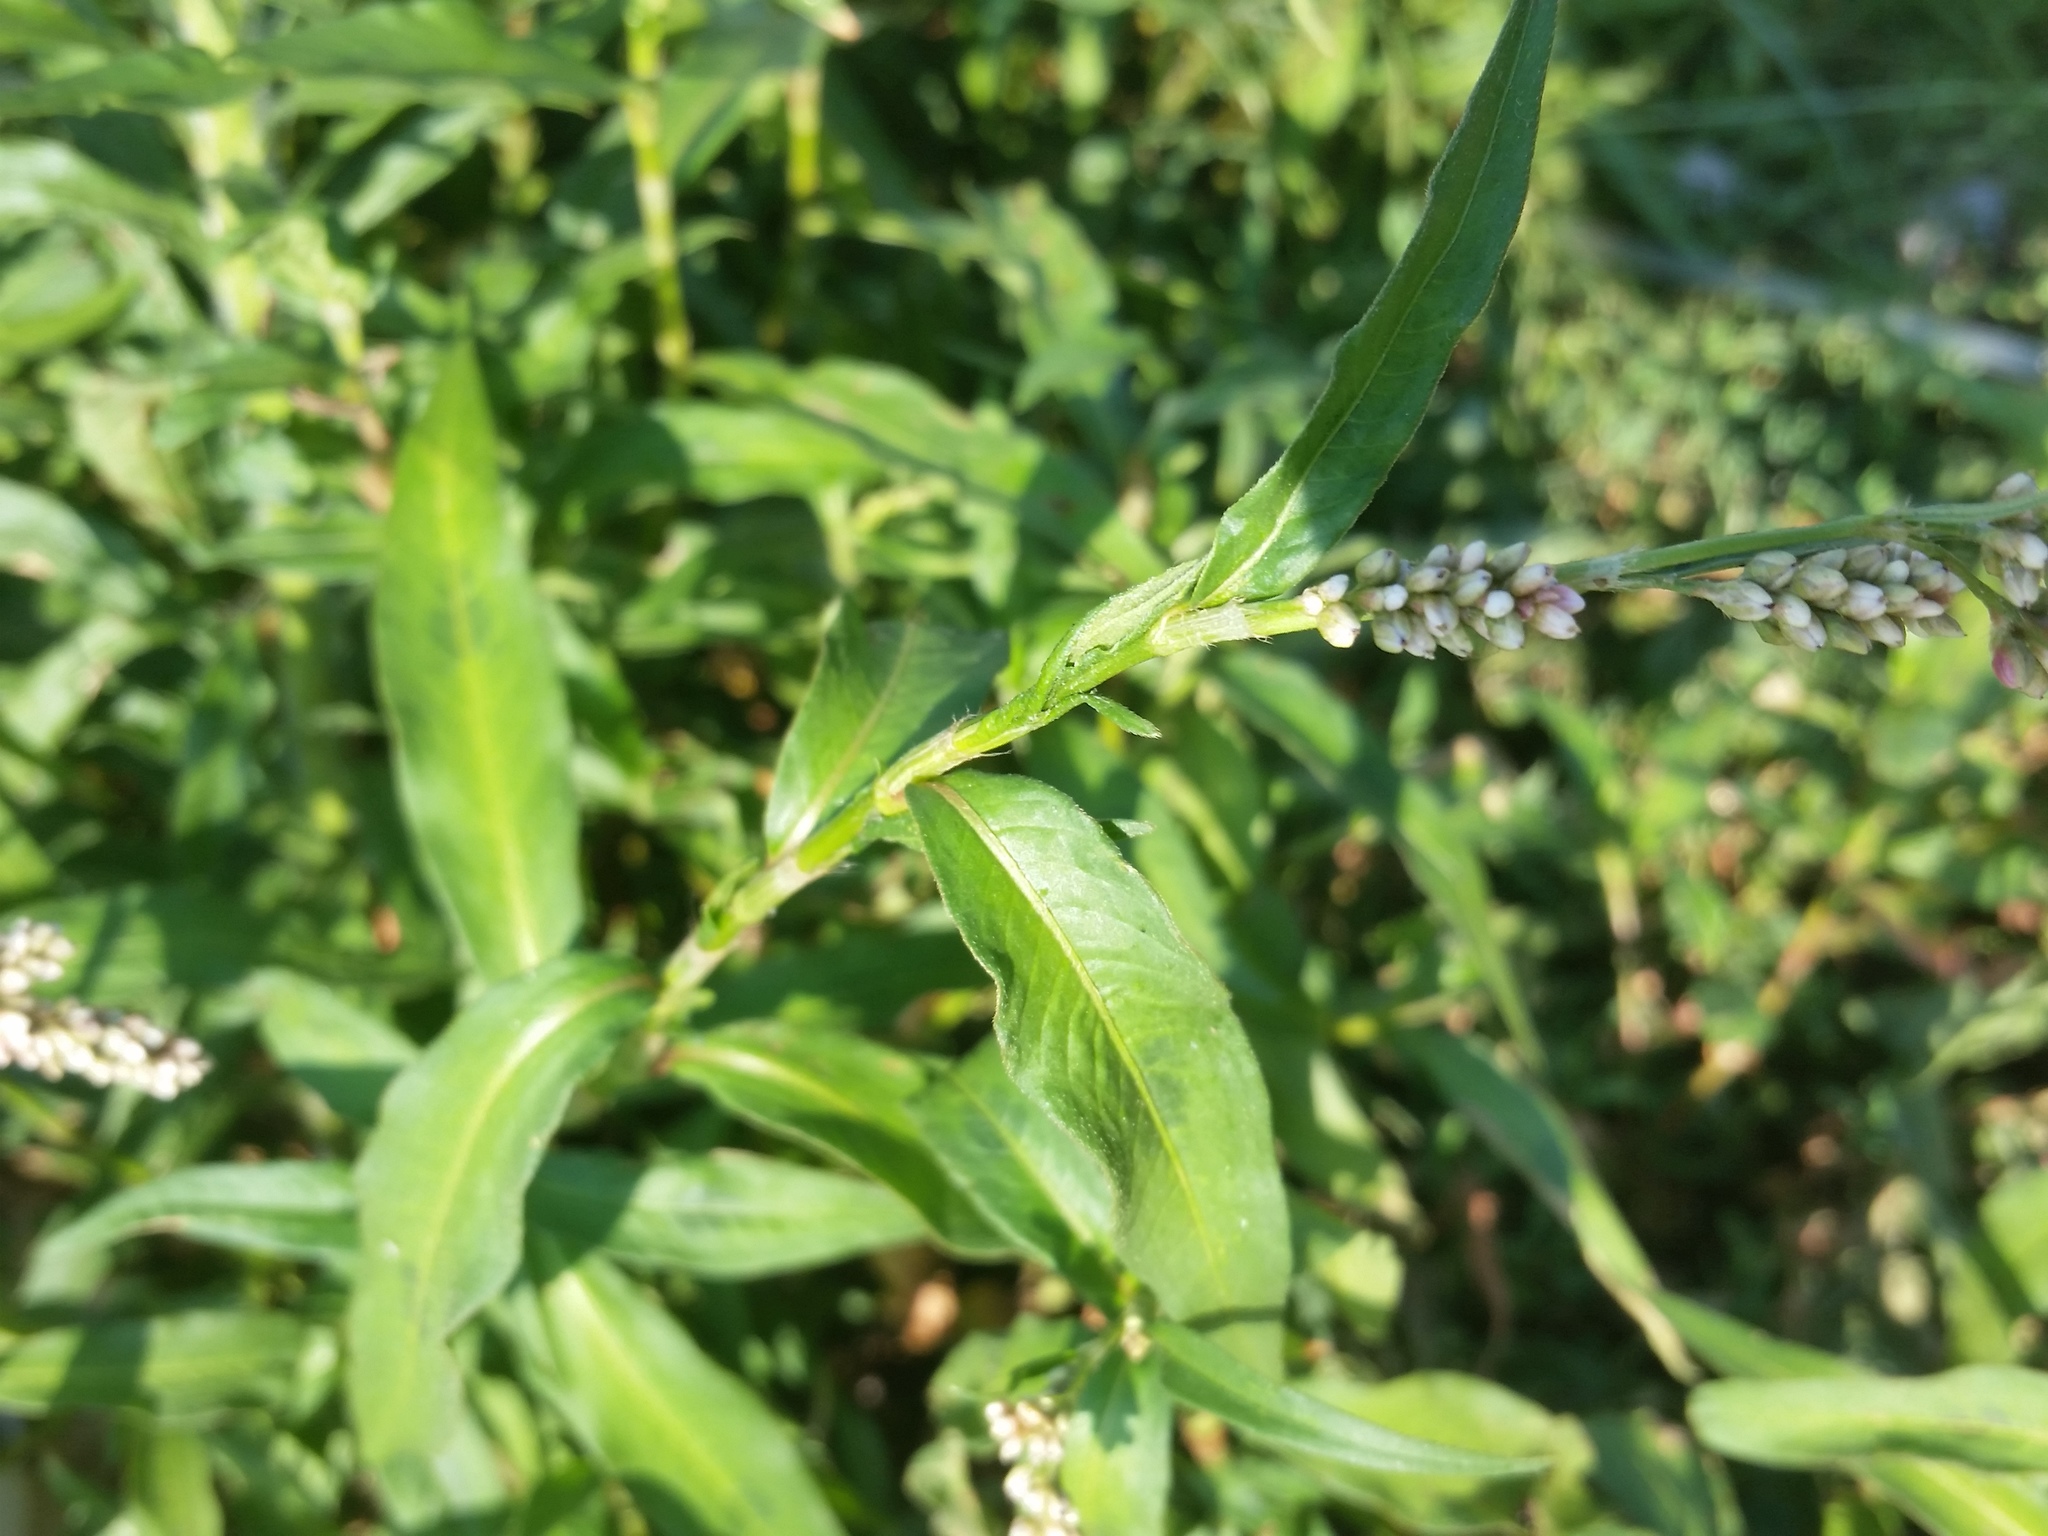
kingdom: Plantae
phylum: Tracheophyta
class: Magnoliopsida
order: Caryophyllales
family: Polygonaceae
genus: Persicaria
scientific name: Persicaria maculosa
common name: Redshank
